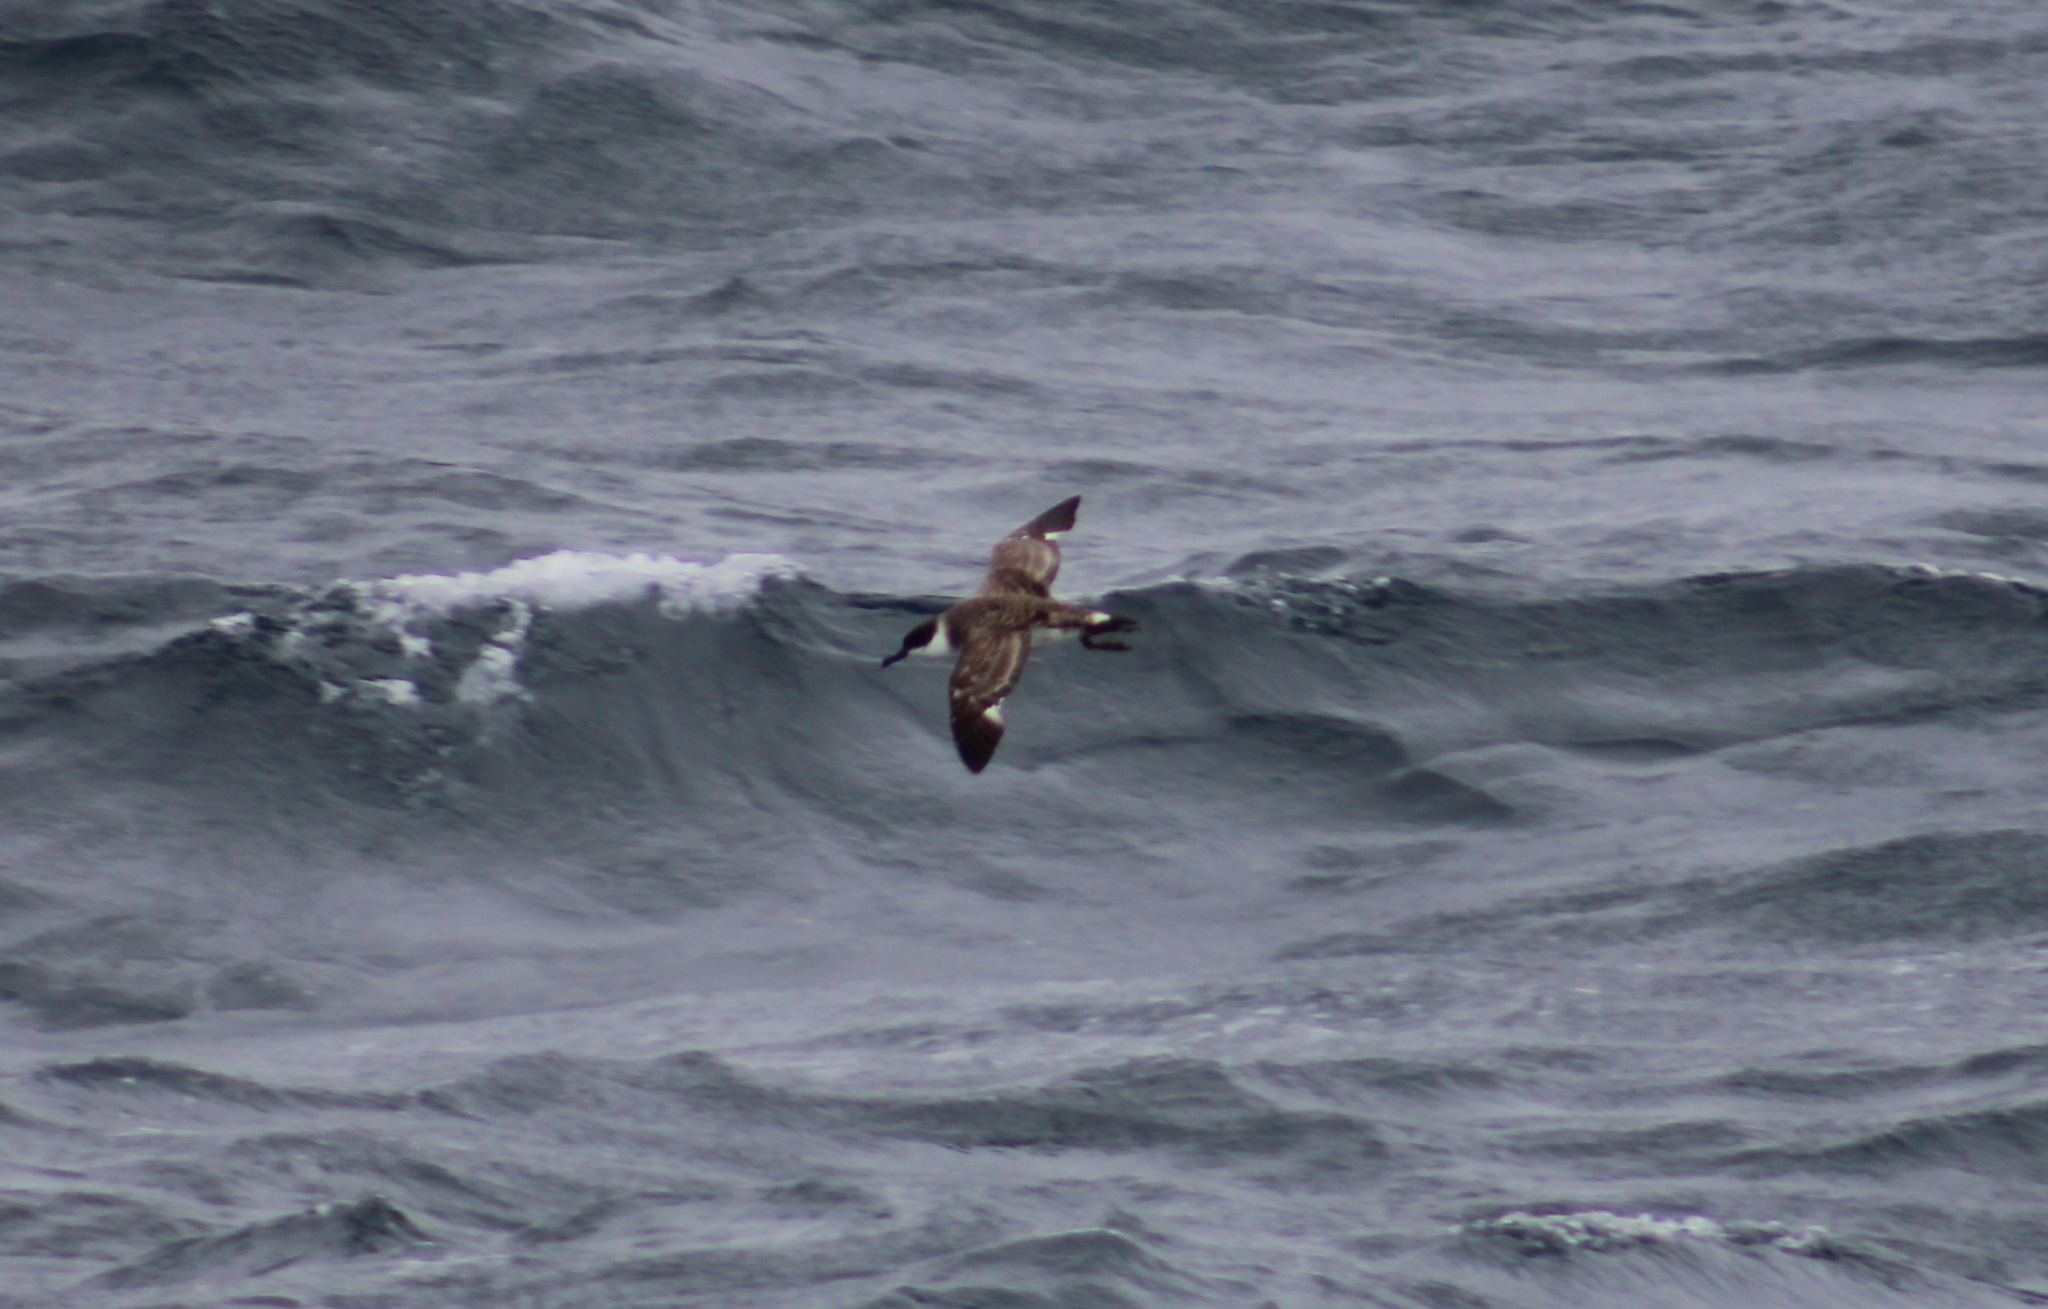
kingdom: Animalia
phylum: Chordata
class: Aves
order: Procellariiformes
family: Procellariidae
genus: Puffinus
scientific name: Puffinus gravis
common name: Great shearwater
